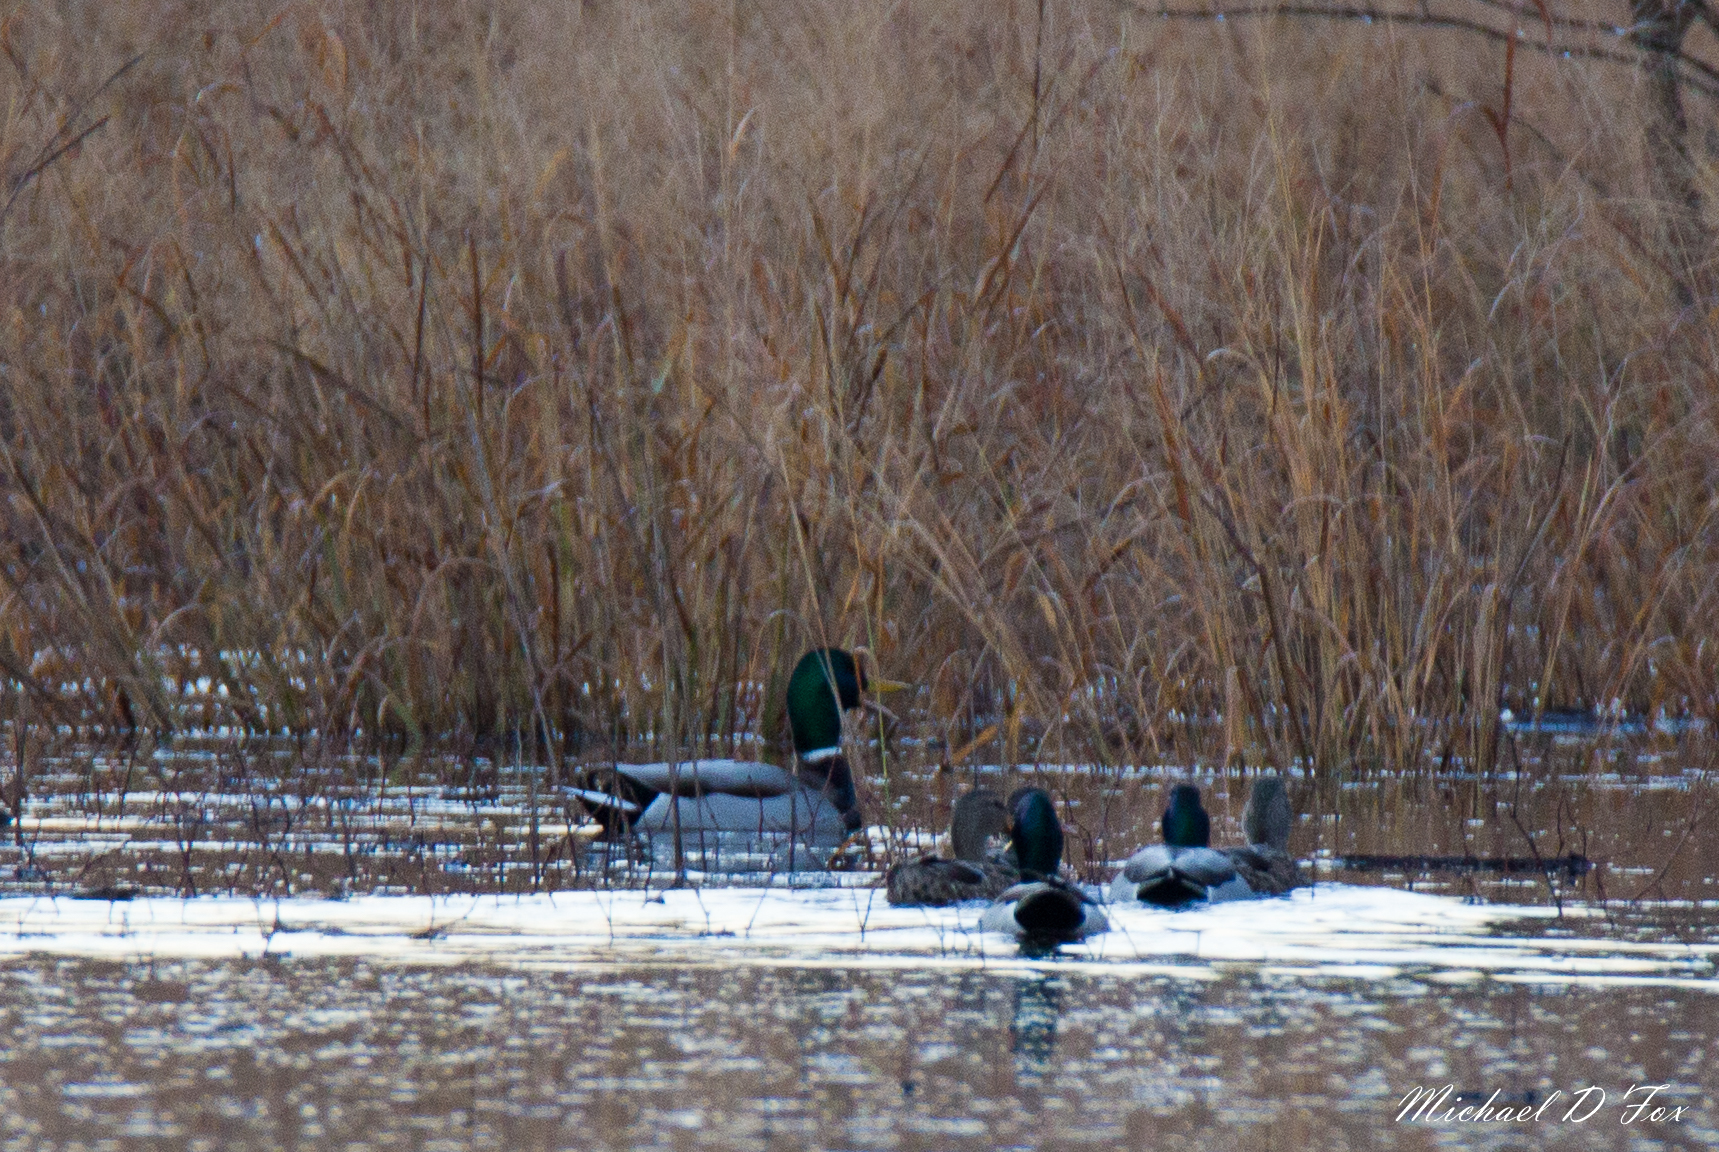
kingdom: Animalia
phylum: Chordata
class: Aves
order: Anseriformes
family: Anatidae
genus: Anas
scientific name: Anas platyrhynchos
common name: Mallard
